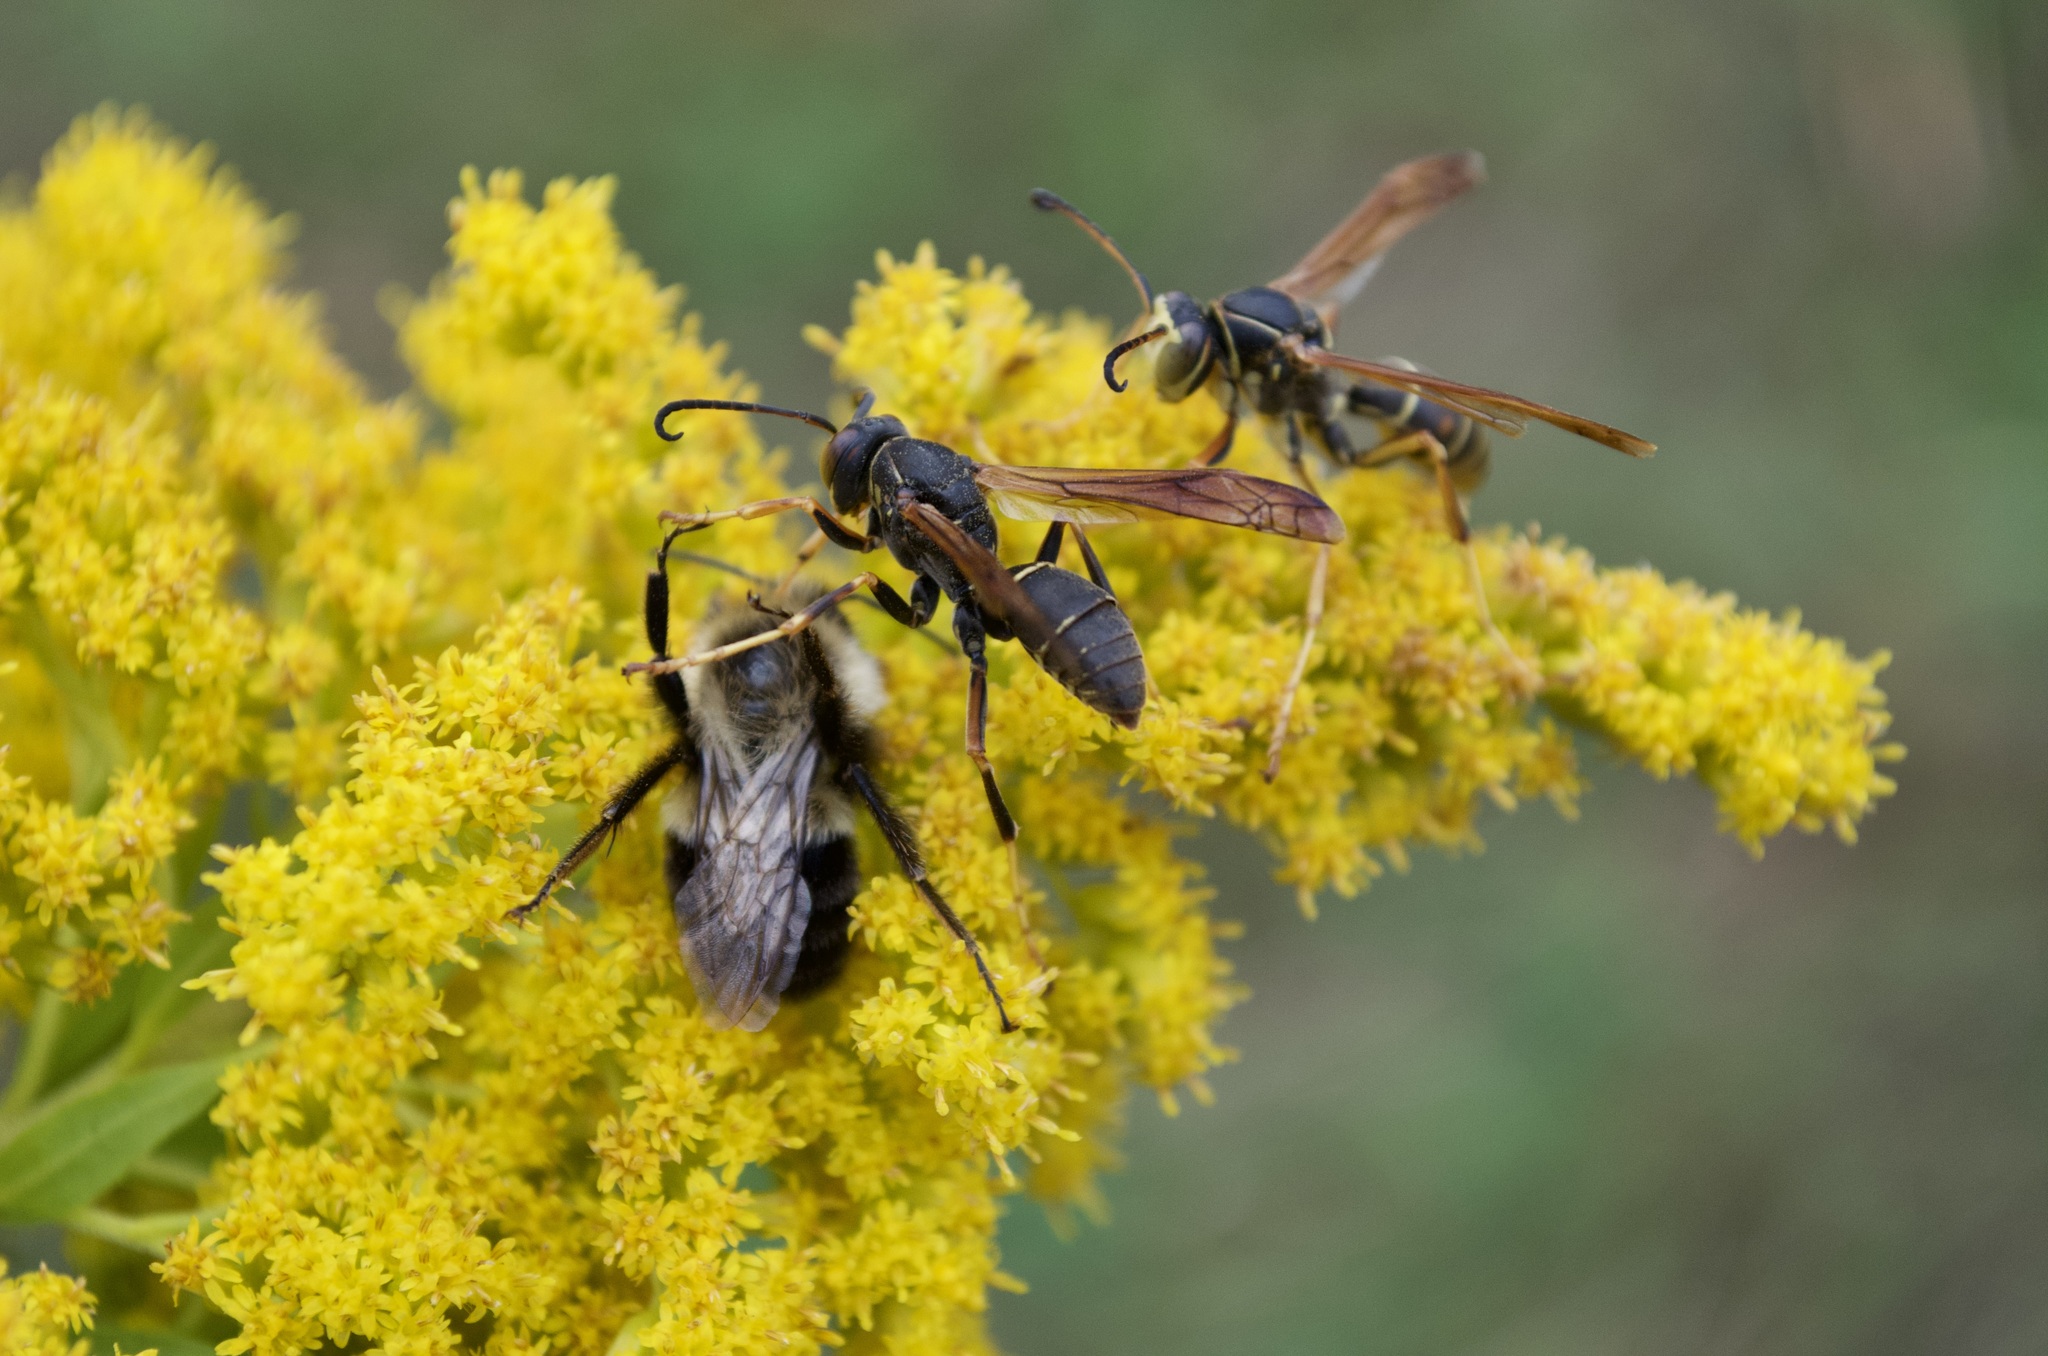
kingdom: Animalia
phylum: Arthropoda
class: Insecta
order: Hymenoptera
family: Eumenidae
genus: Polistes
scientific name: Polistes fuscatus
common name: Dark paper wasp
